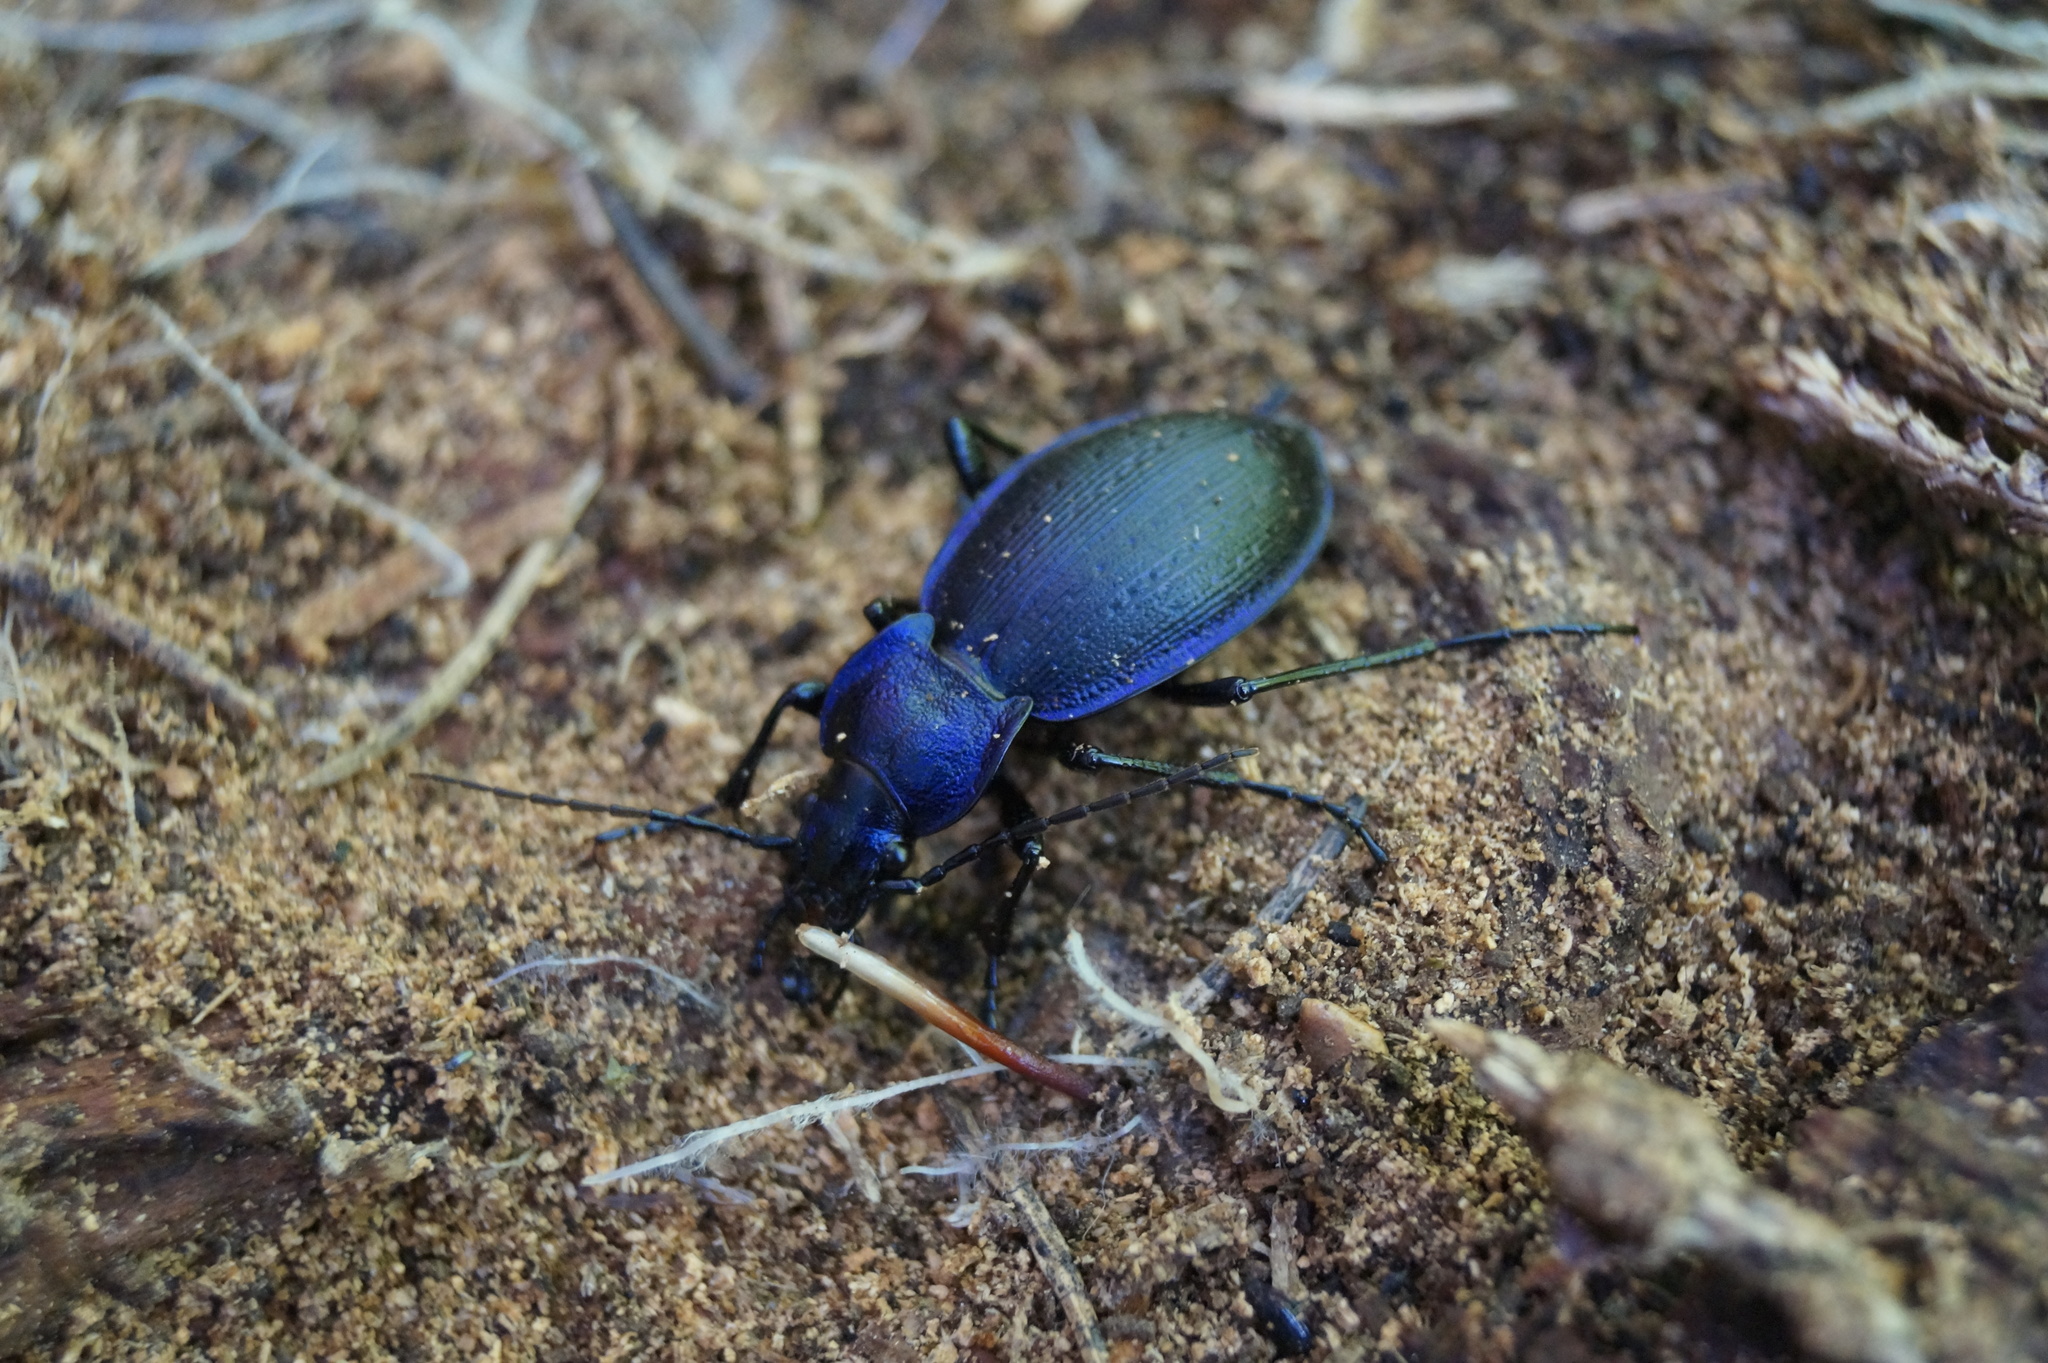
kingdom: Animalia
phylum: Arthropoda
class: Insecta
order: Coleoptera
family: Carabidae
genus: Carabus
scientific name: Carabus problematicus
